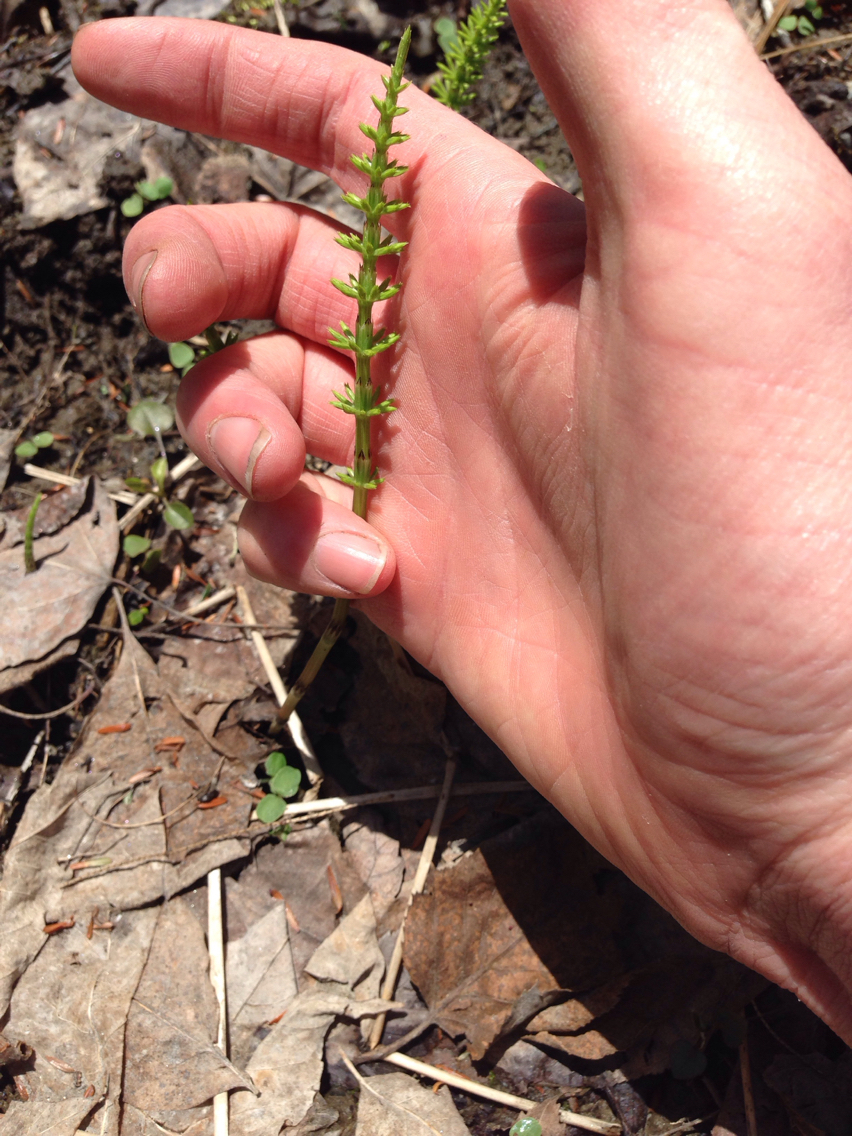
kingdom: Plantae
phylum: Tracheophyta
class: Polypodiopsida
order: Equisetales
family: Equisetaceae
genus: Equisetum
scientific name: Equisetum arvense
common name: Field horsetail
